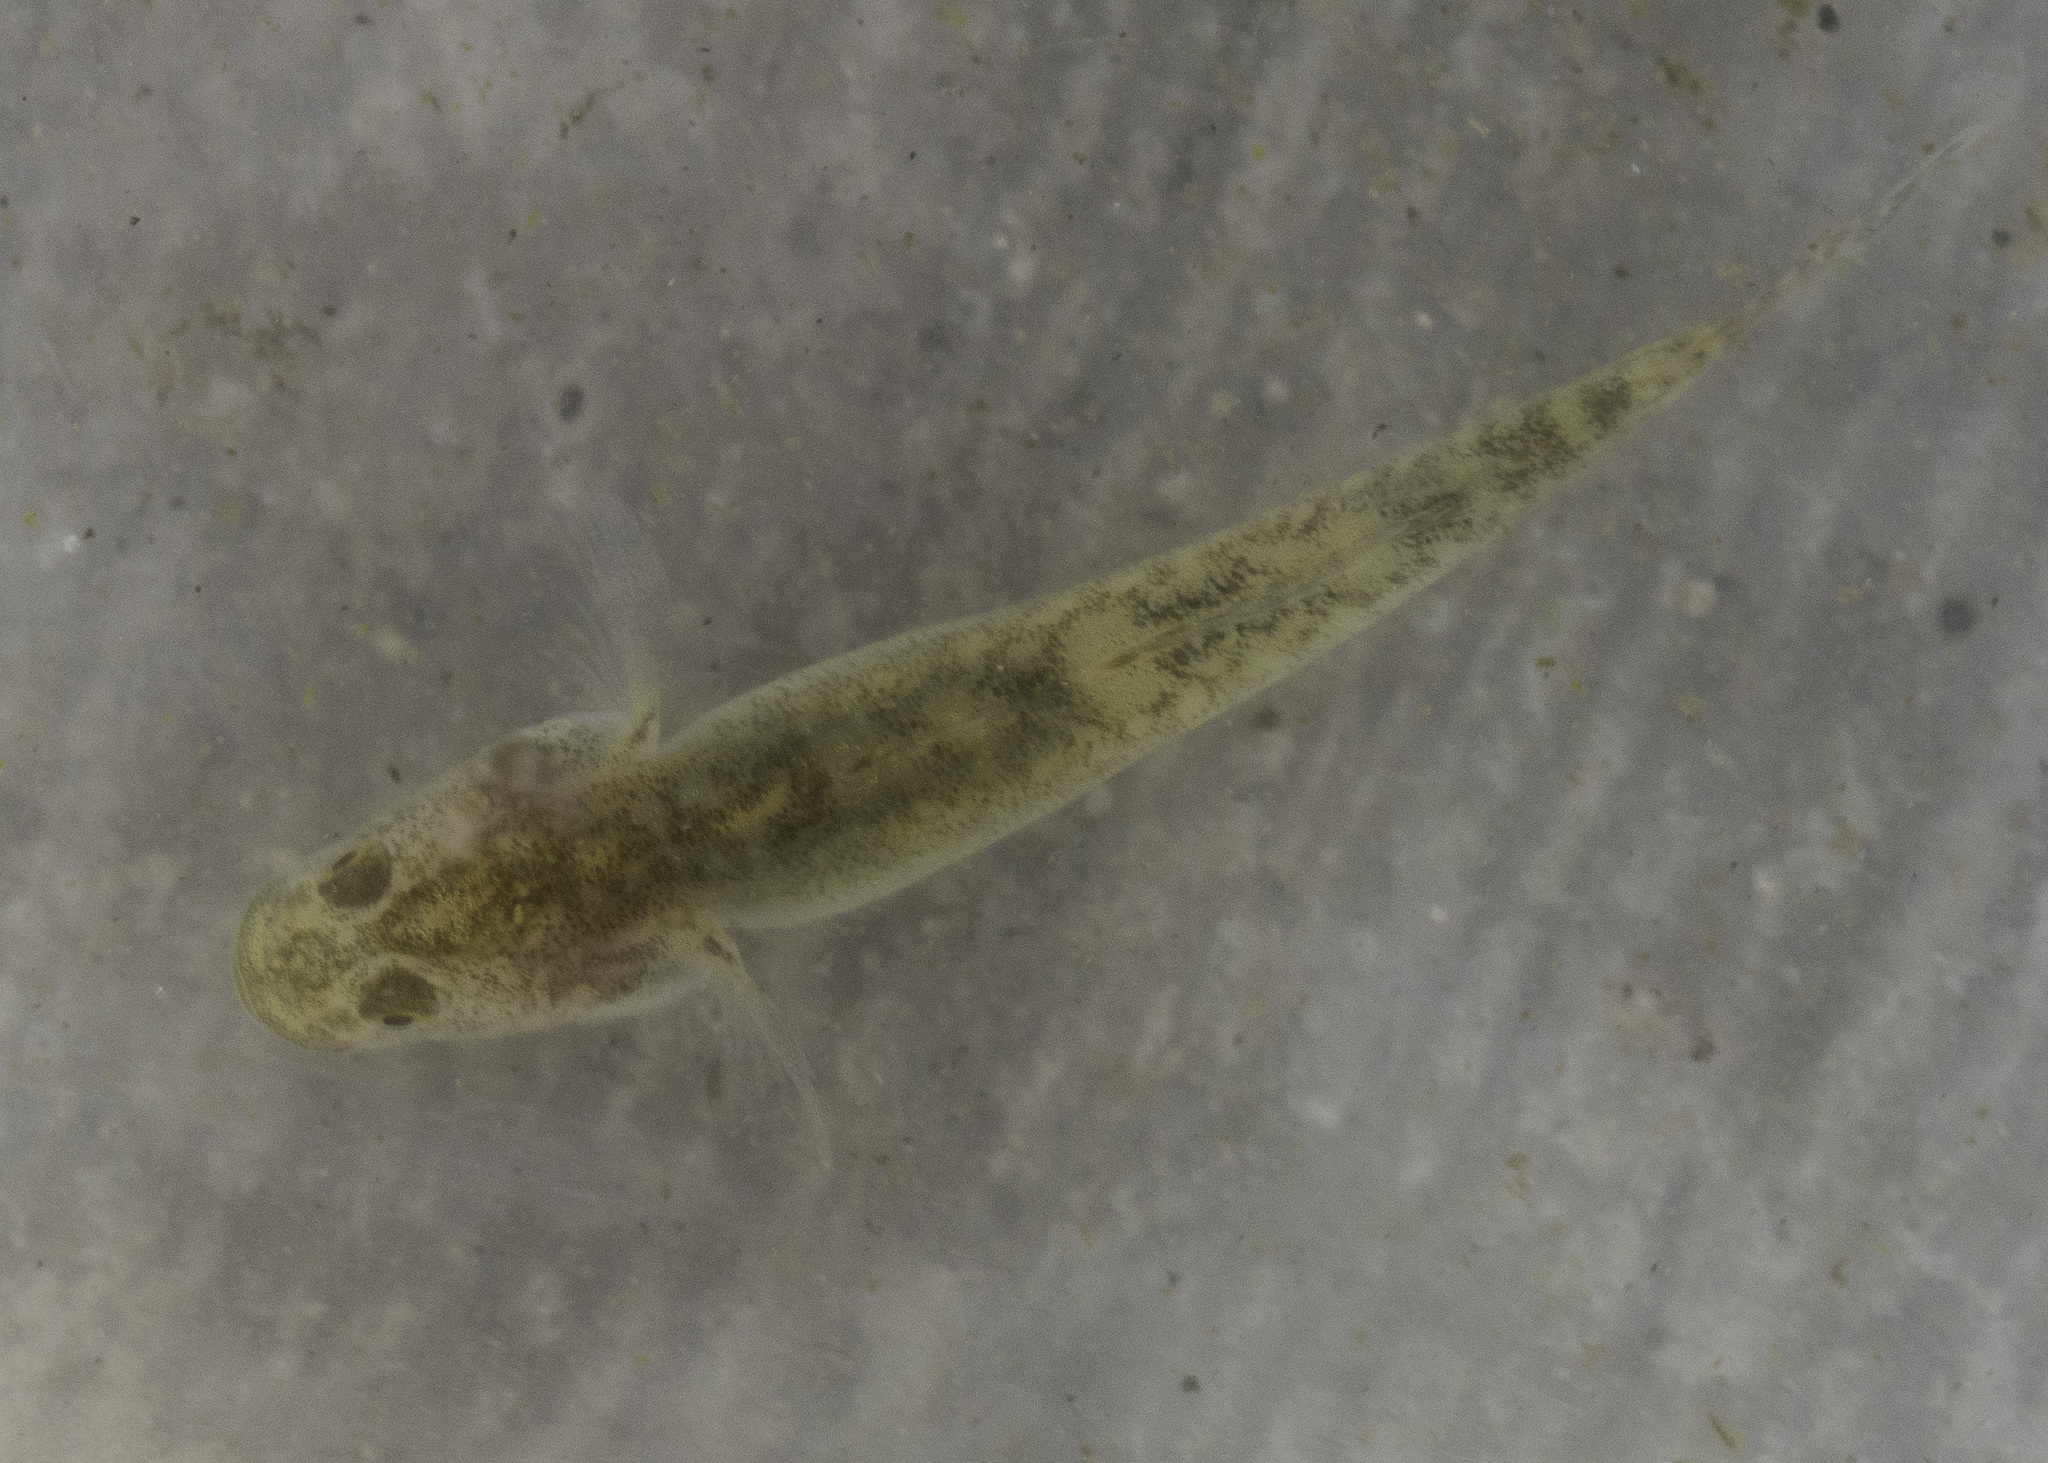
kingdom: Animalia
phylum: Chordata
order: Perciformes
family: Gobiidae
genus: Eucyclogobius
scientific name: Eucyclogobius newberryi
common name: Tidewater goby
